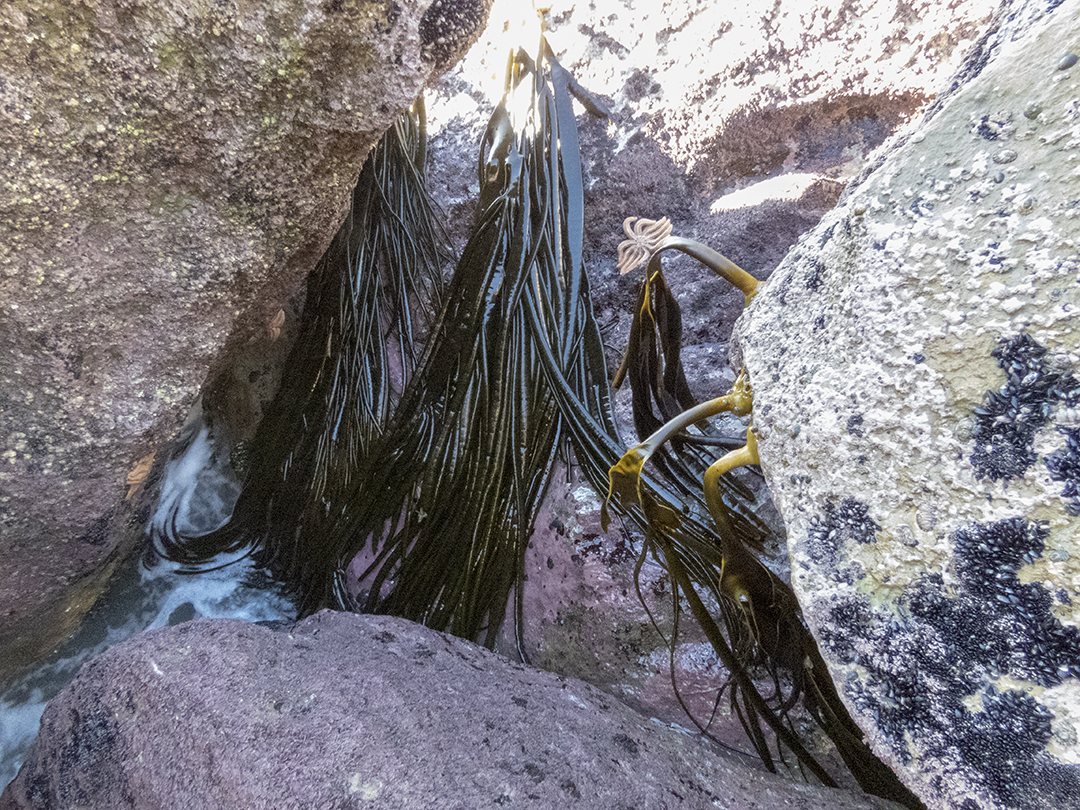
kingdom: Chromista
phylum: Ochrophyta
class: Phaeophyceae
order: Fucales
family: Durvillaeaceae
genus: Durvillaea
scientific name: Durvillaea antarctica
